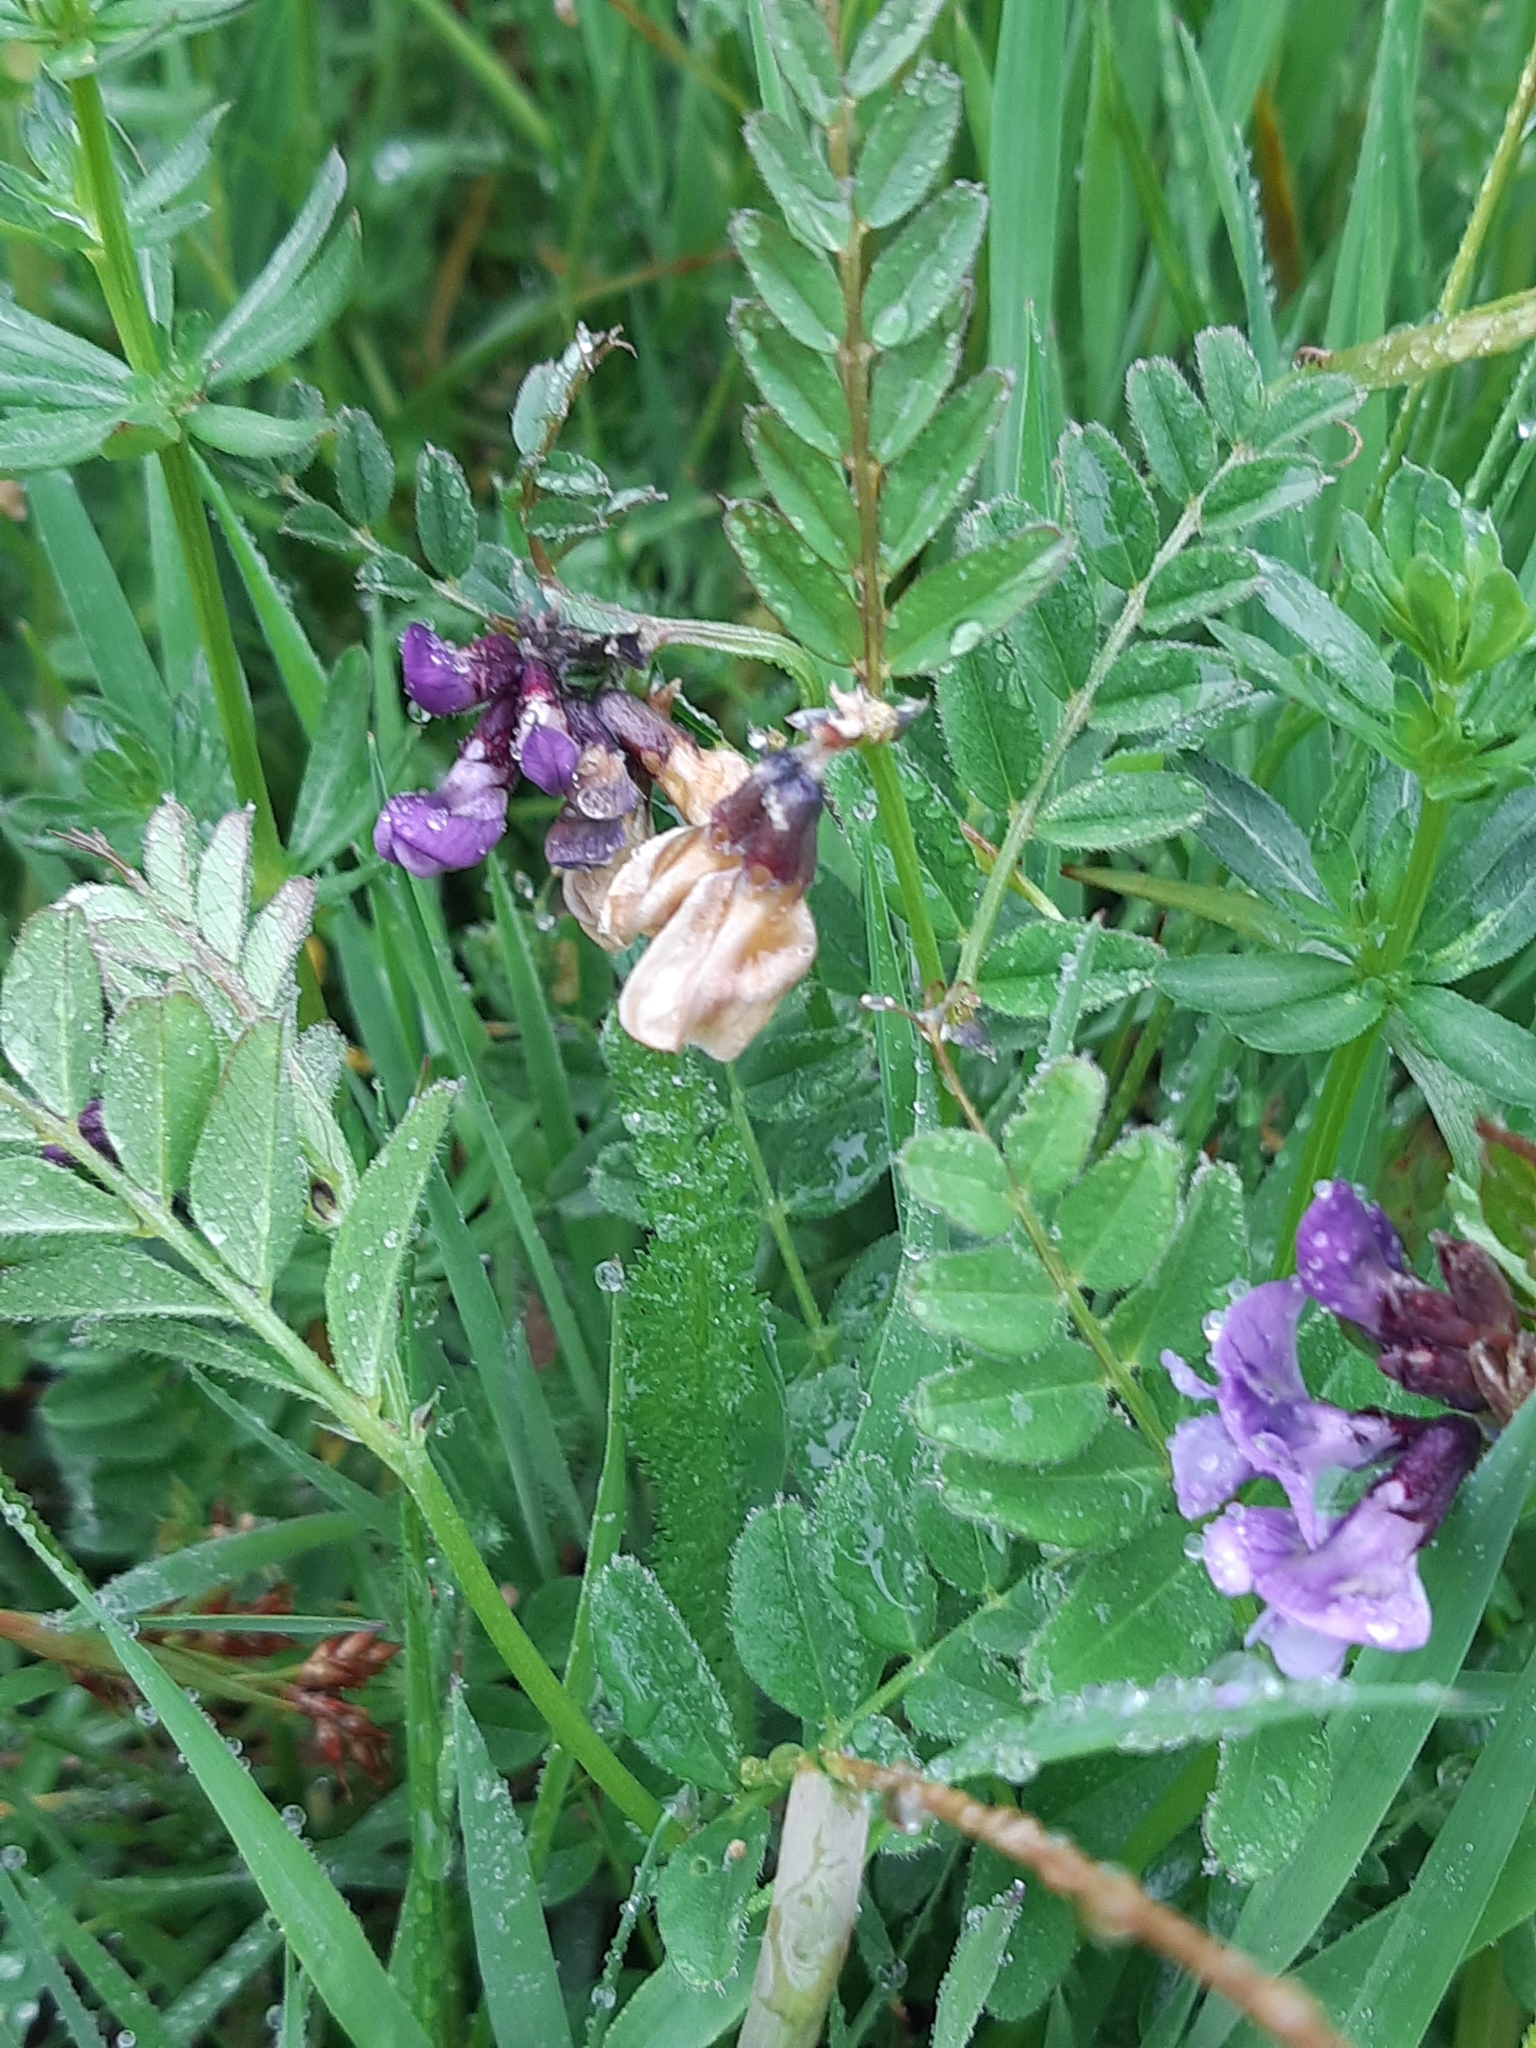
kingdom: Plantae
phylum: Tracheophyta
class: Magnoliopsida
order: Fabales
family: Fabaceae
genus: Vicia
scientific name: Vicia sepium
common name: Bush vetch
